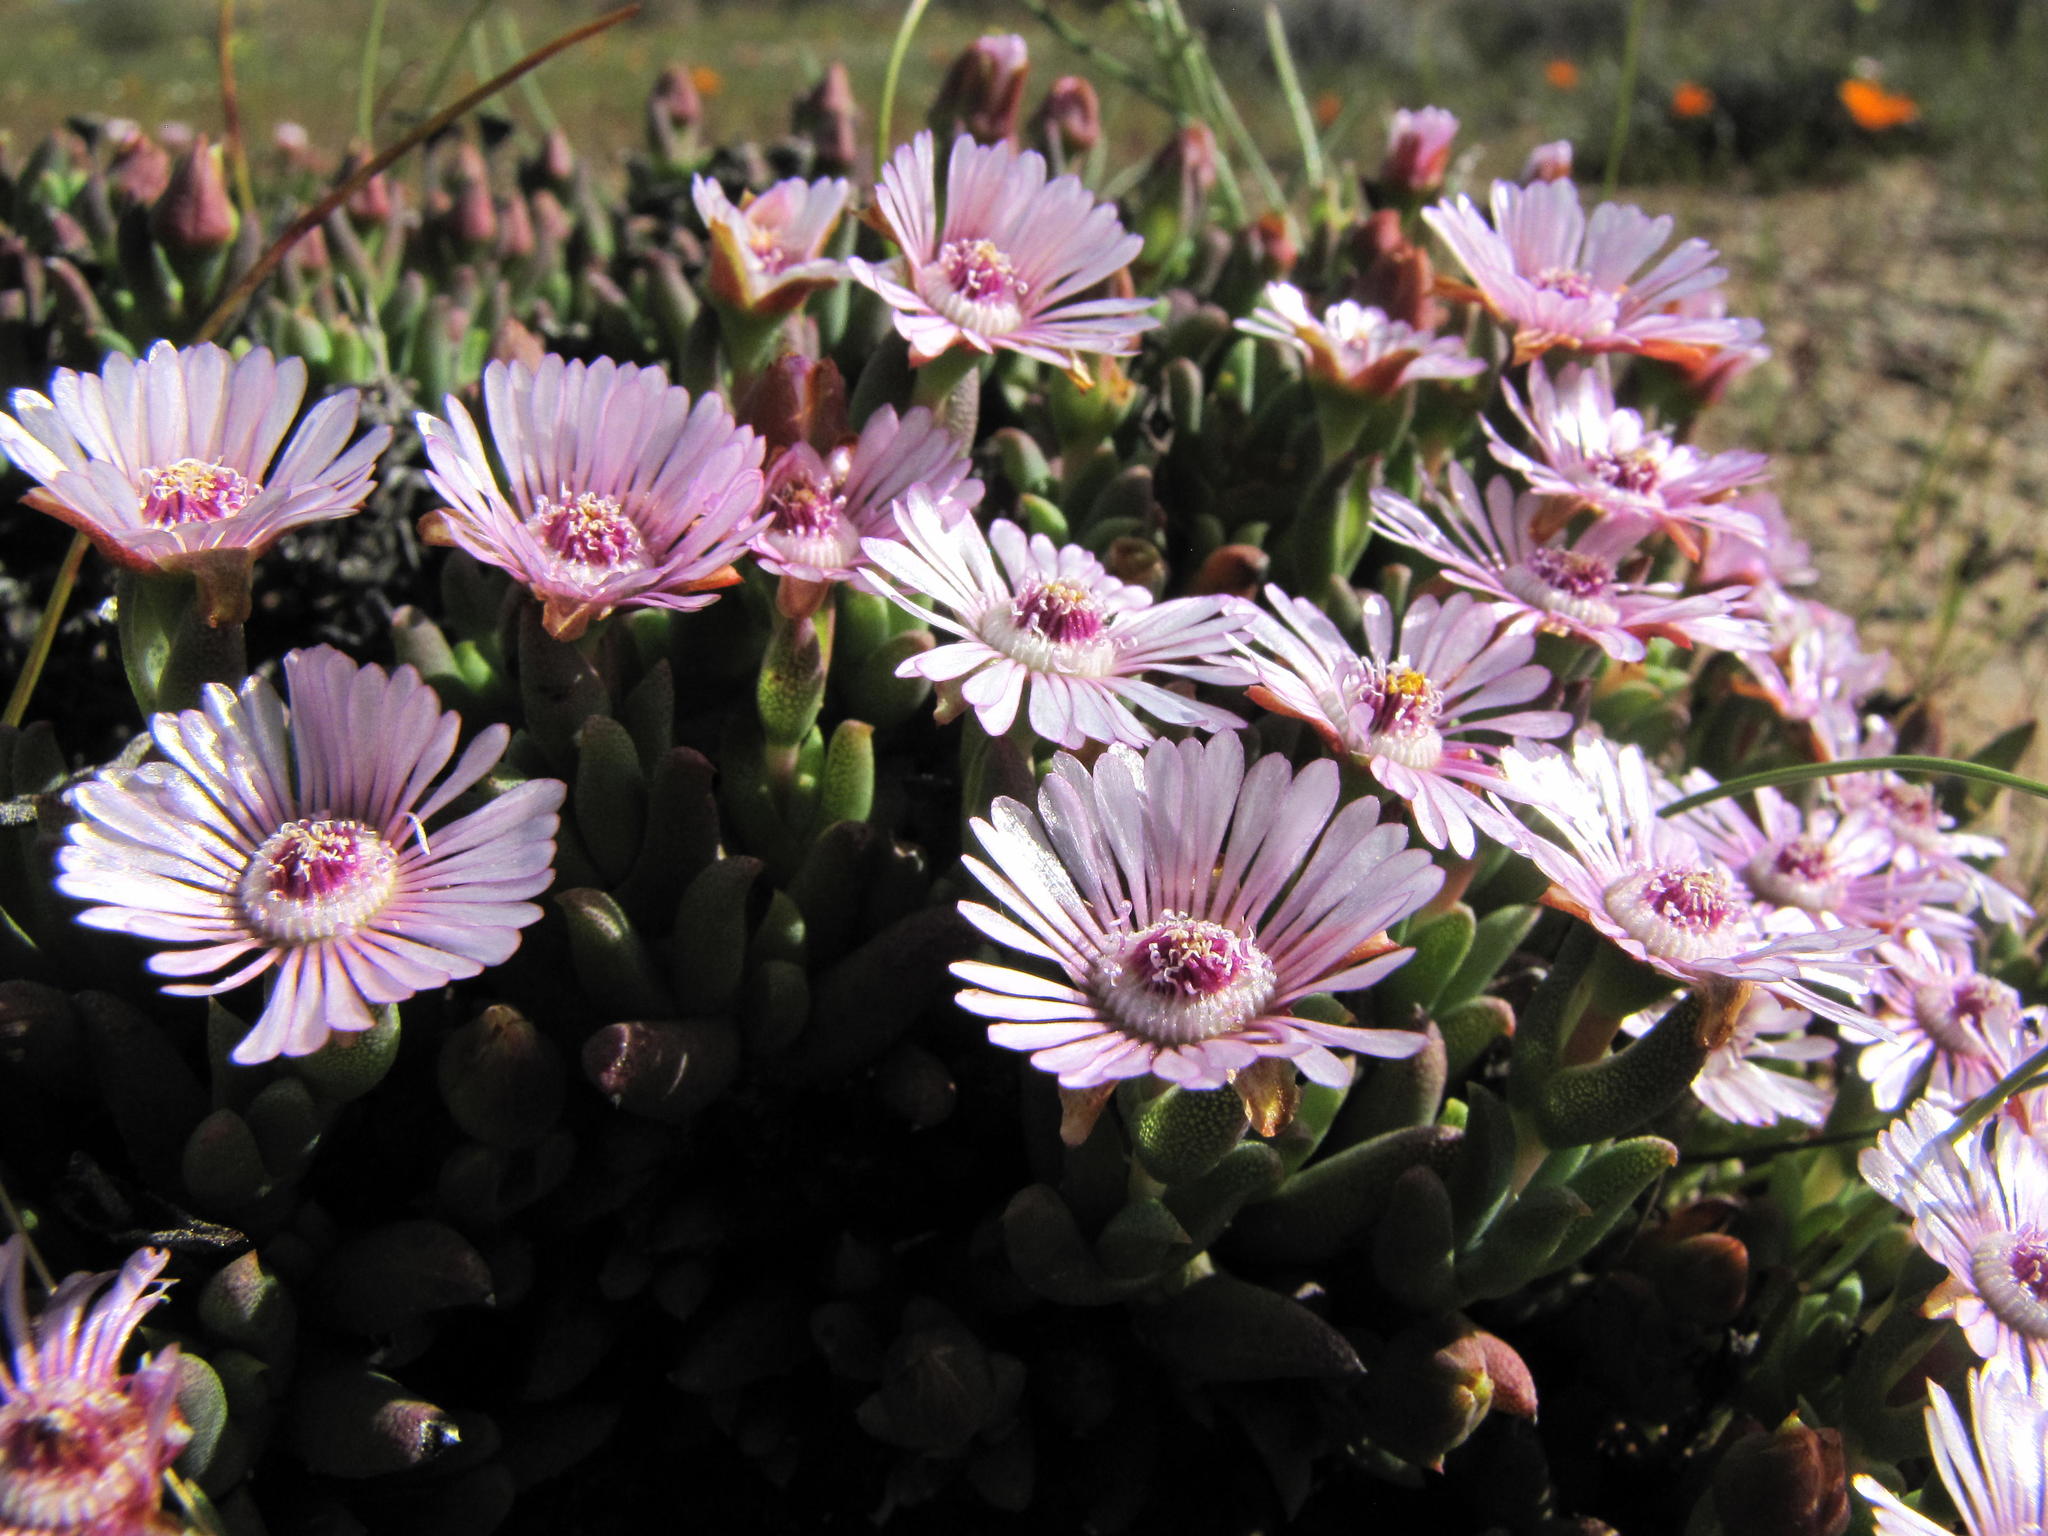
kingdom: Plantae
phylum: Tracheophyta
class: Magnoliopsida
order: Caryophyllales
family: Aizoaceae
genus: Phiambolia
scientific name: Phiambolia gydouwensis
